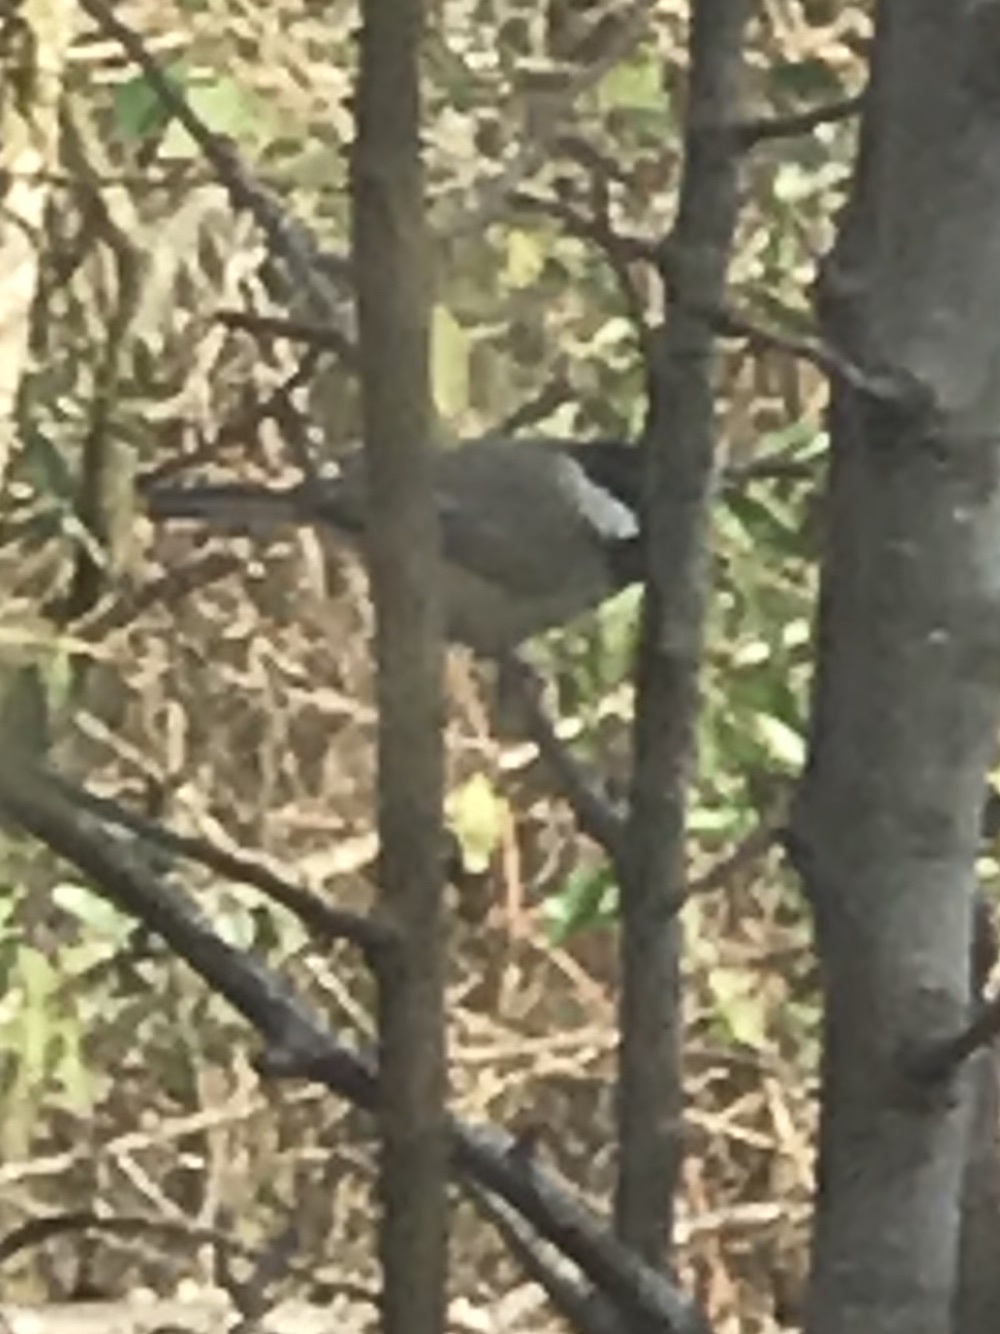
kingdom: Animalia
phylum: Chordata
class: Aves
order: Passeriformes
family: Paridae
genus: Poecile
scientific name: Poecile carolinensis
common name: Carolina chickadee
